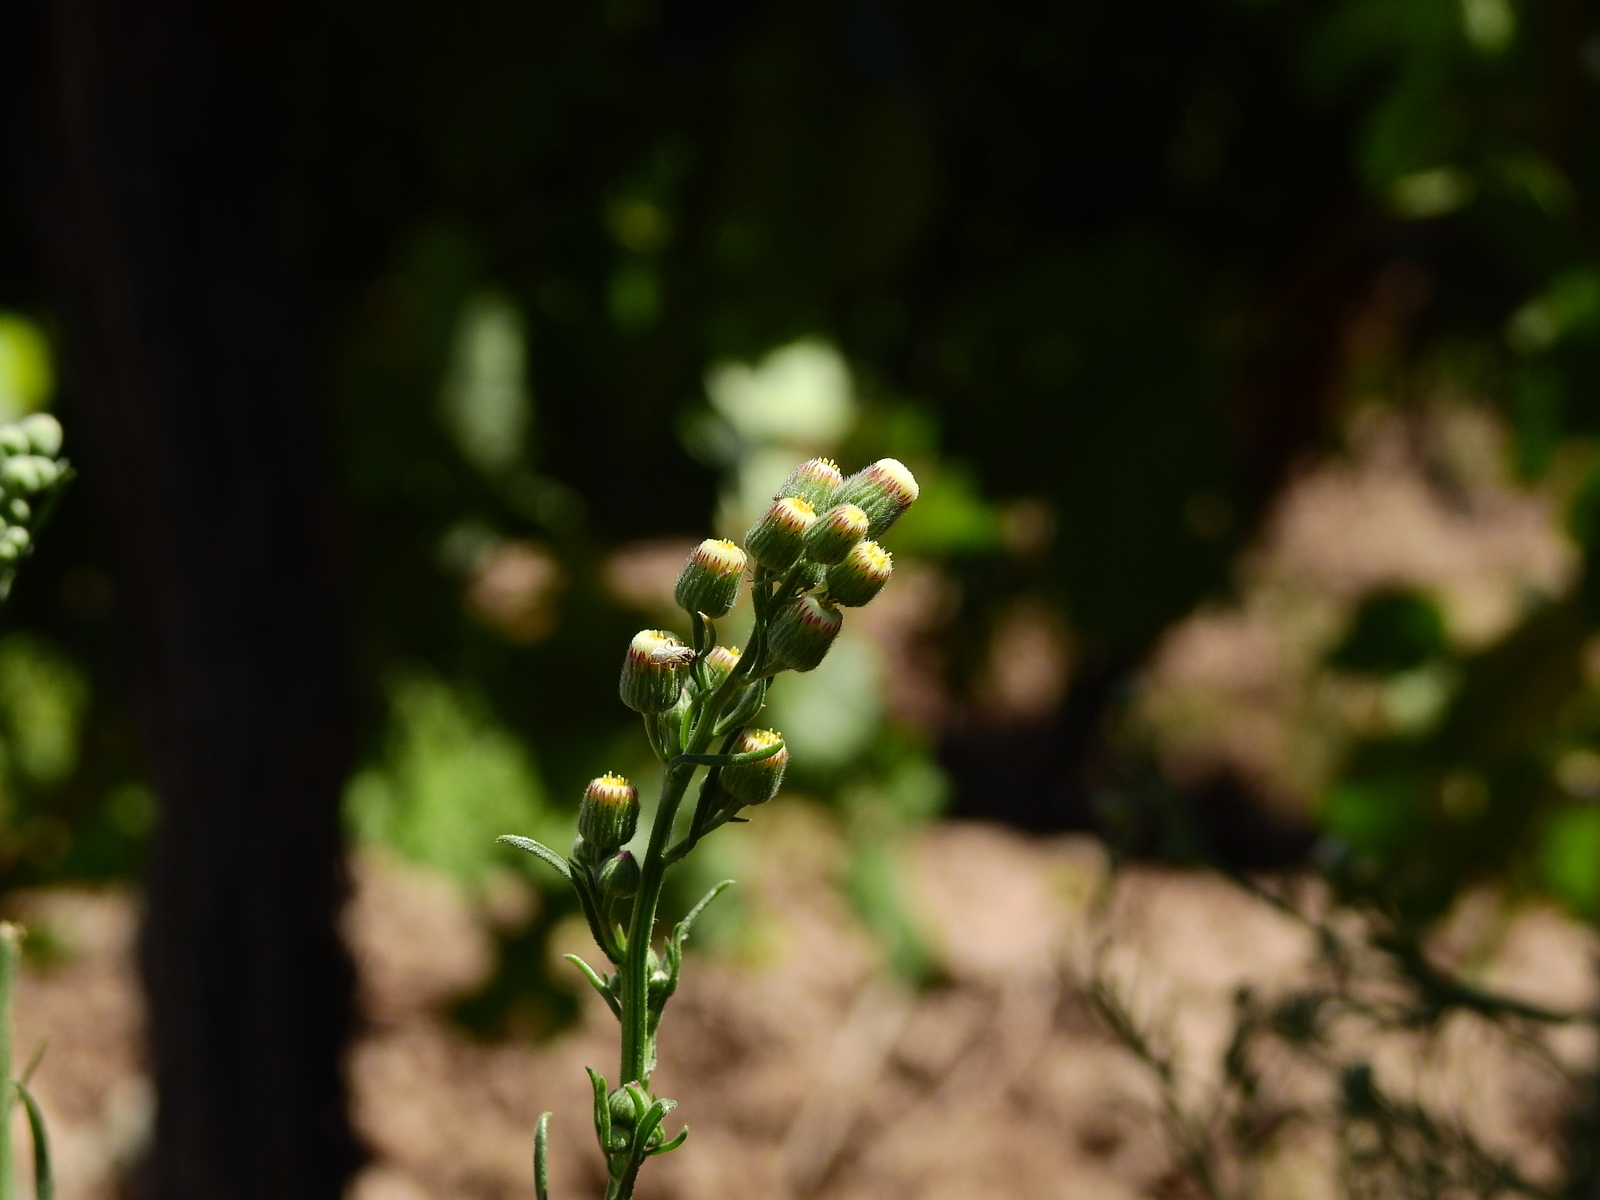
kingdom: Plantae
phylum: Tracheophyta
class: Magnoliopsida
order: Asterales
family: Asteraceae
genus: Erigeron
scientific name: Erigeron bonariensis
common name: Argentine fleabane
